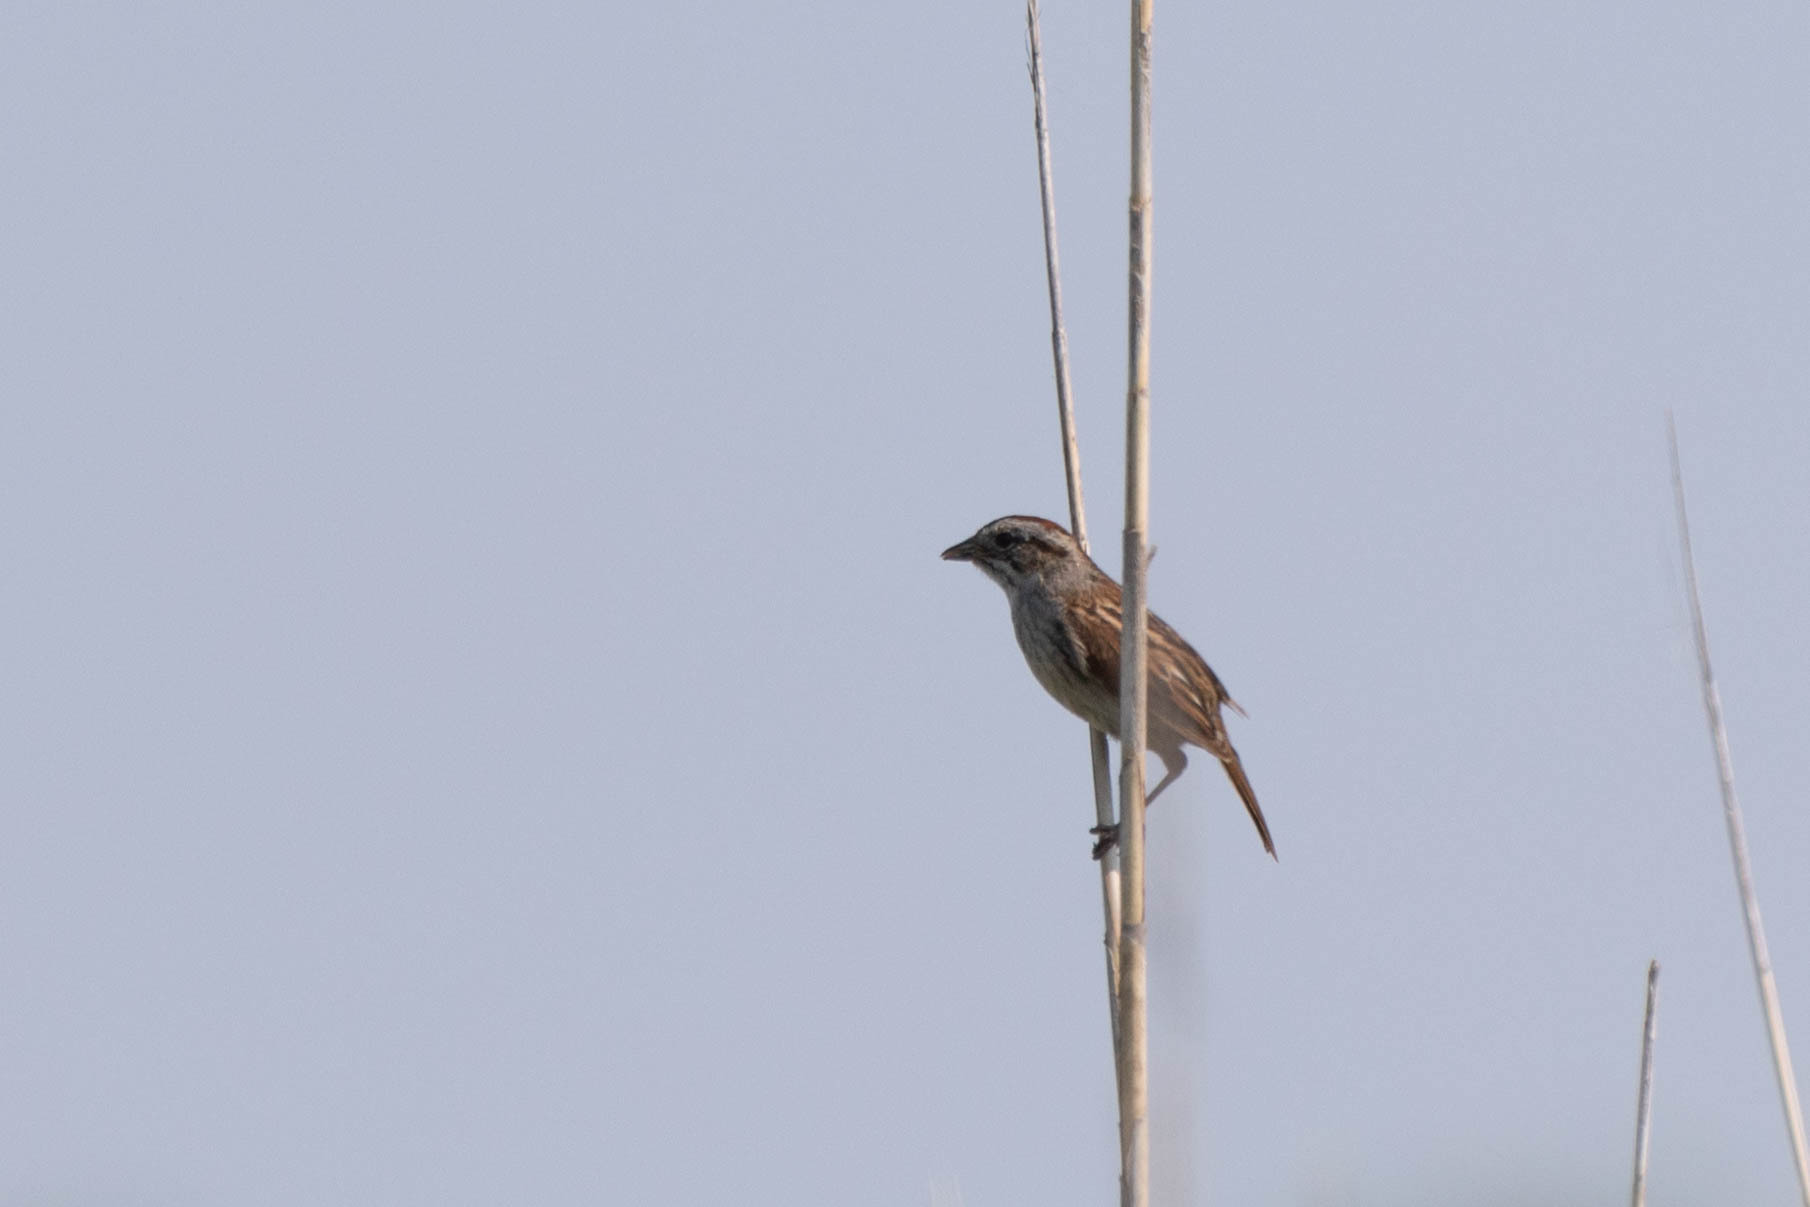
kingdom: Animalia
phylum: Chordata
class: Aves
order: Passeriformes
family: Passerellidae
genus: Melospiza
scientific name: Melospiza georgiana
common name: Swamp sparrow
